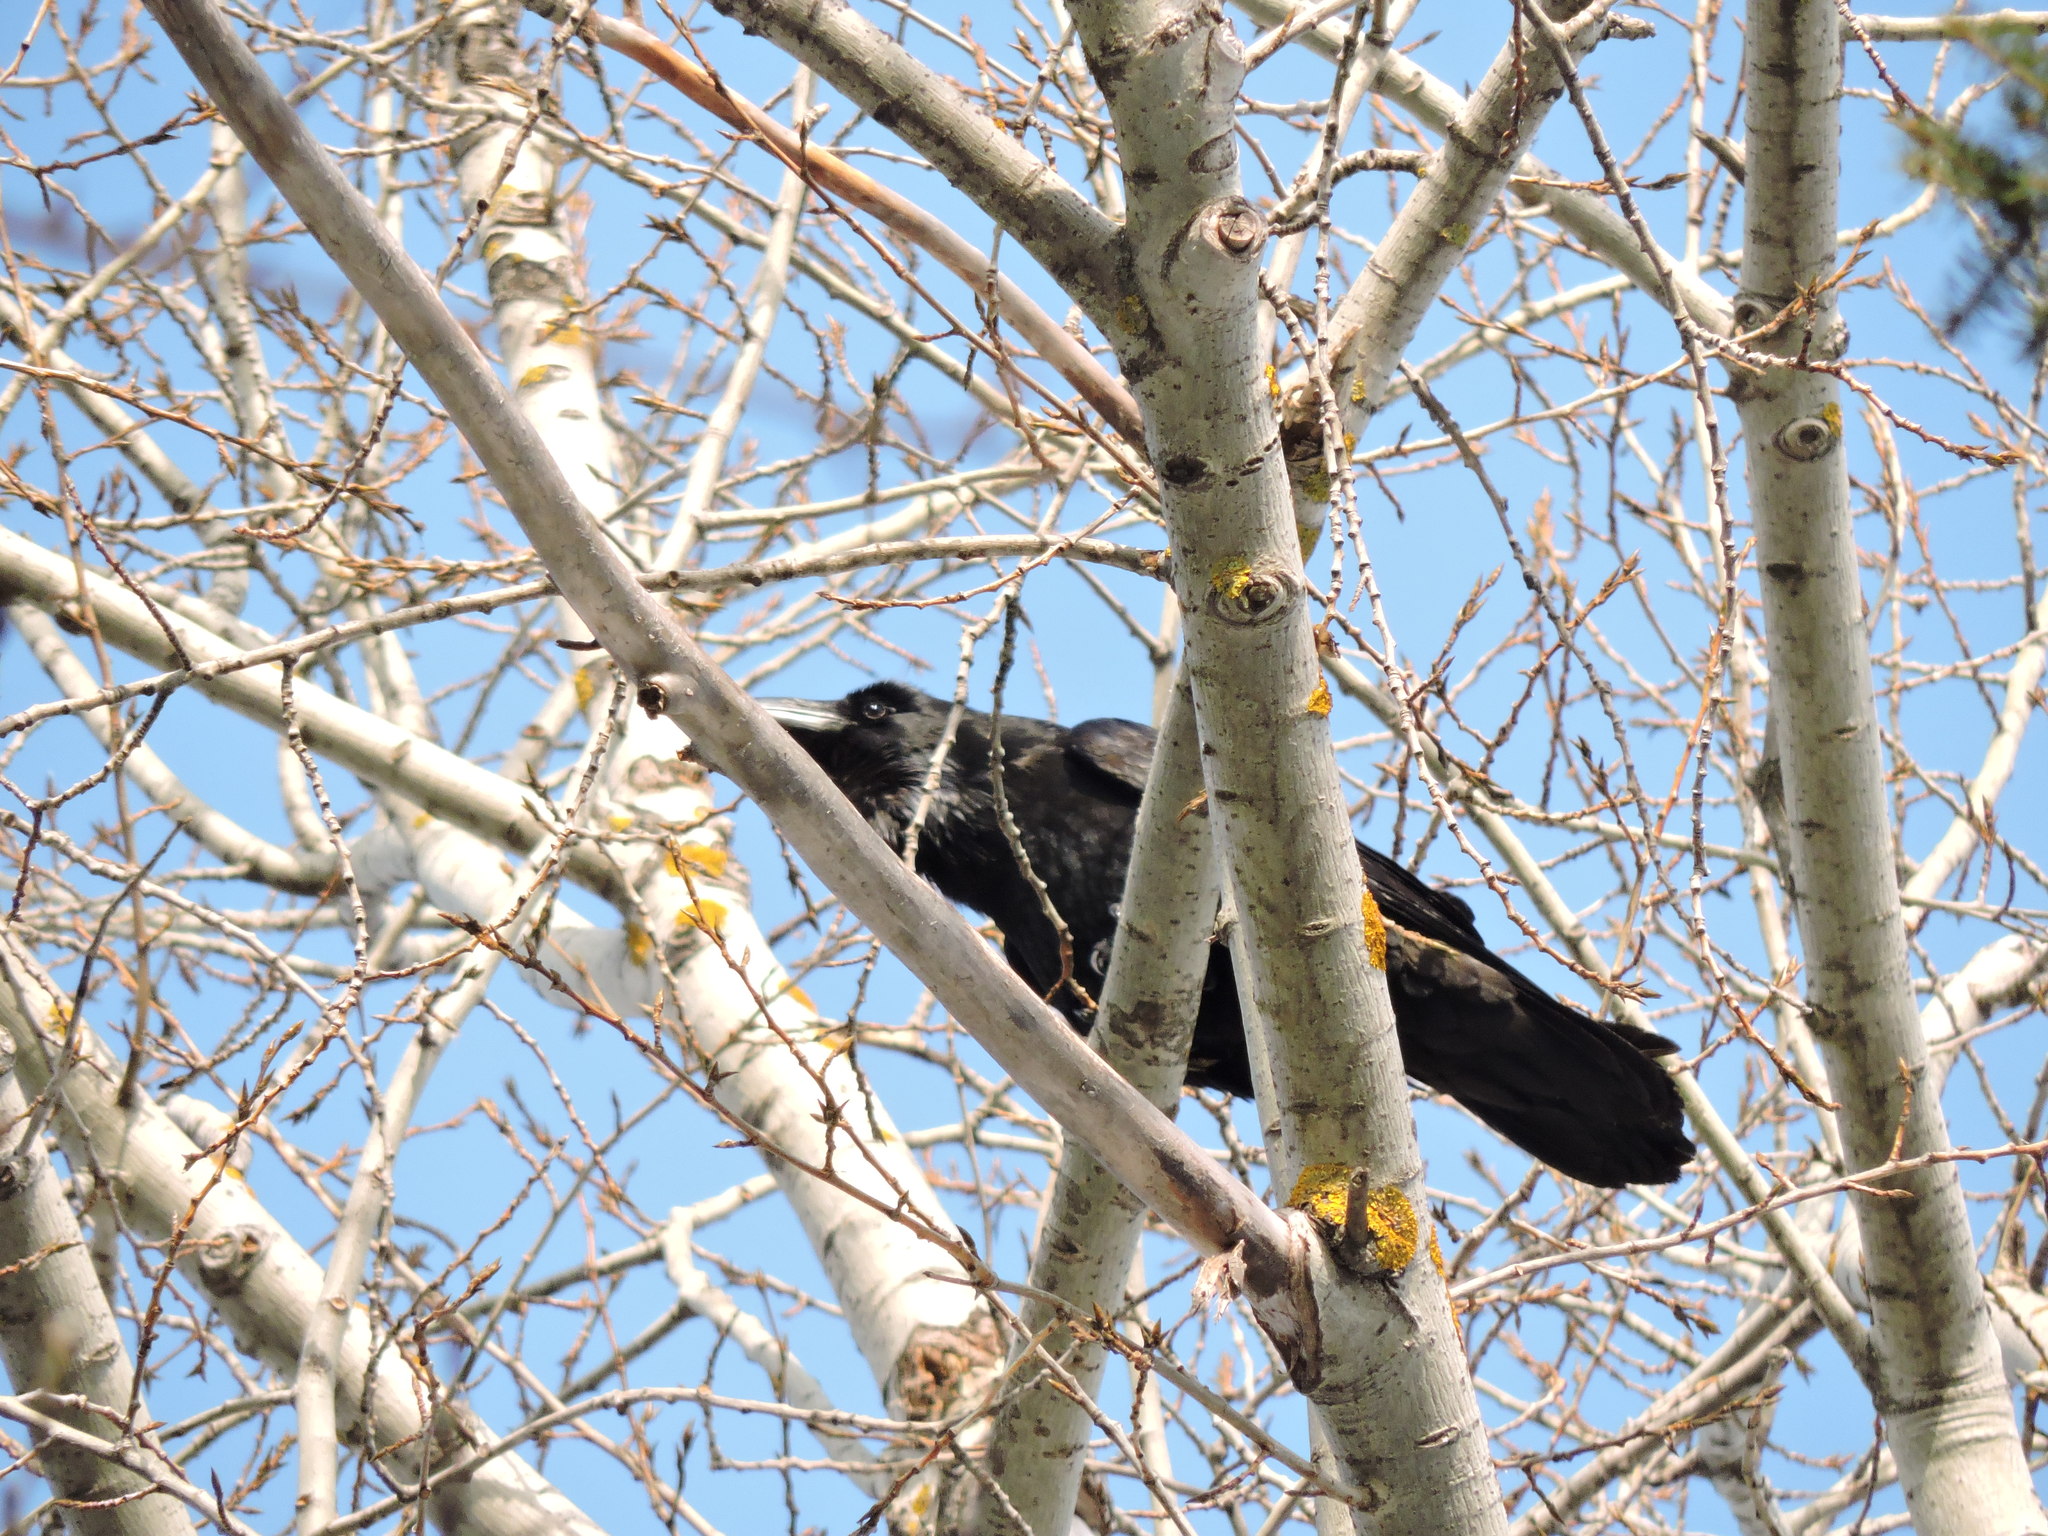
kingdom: Animalia
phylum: Chordata
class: Aves
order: Passeriformes
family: Corvidae
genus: Corvus
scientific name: Corvus corax
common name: Common raven
